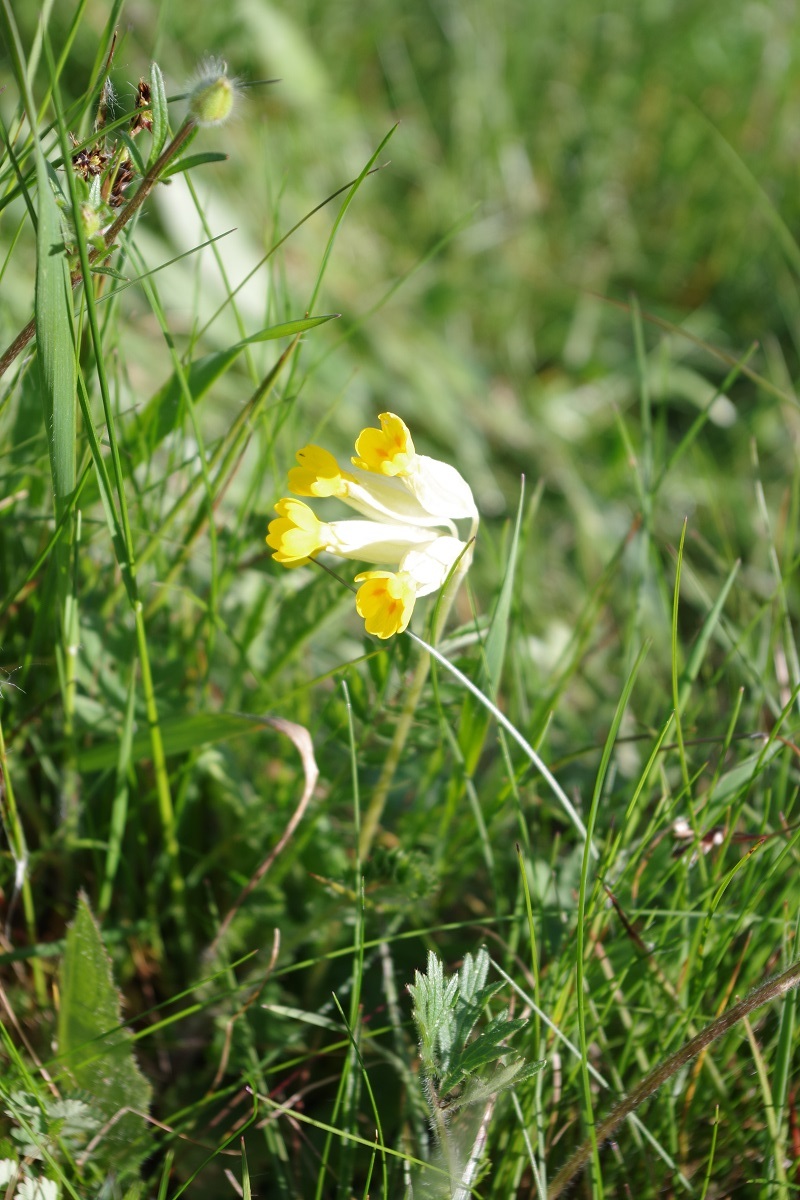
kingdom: Plantae
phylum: Tracheophyta
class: Magnoliopsida
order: Ericales
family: Primulaceae
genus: Primula
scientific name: Primula veris
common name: Cowslip
